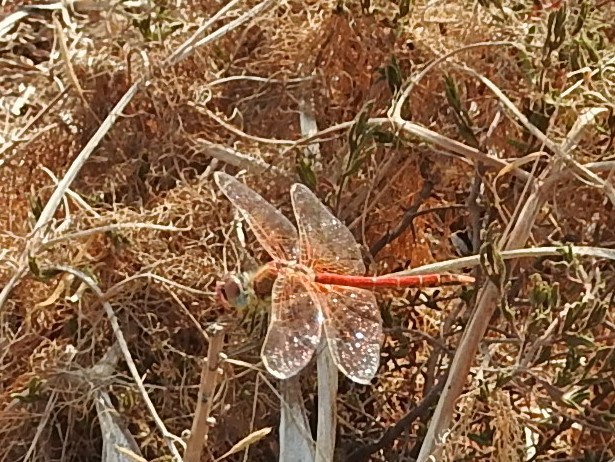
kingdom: Animalia
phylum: Arthropoda
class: Insecta
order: Odonata
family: Libellulidae
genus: Sympetrum
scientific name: Sympetrum fonscolombii
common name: Red-veined darter
